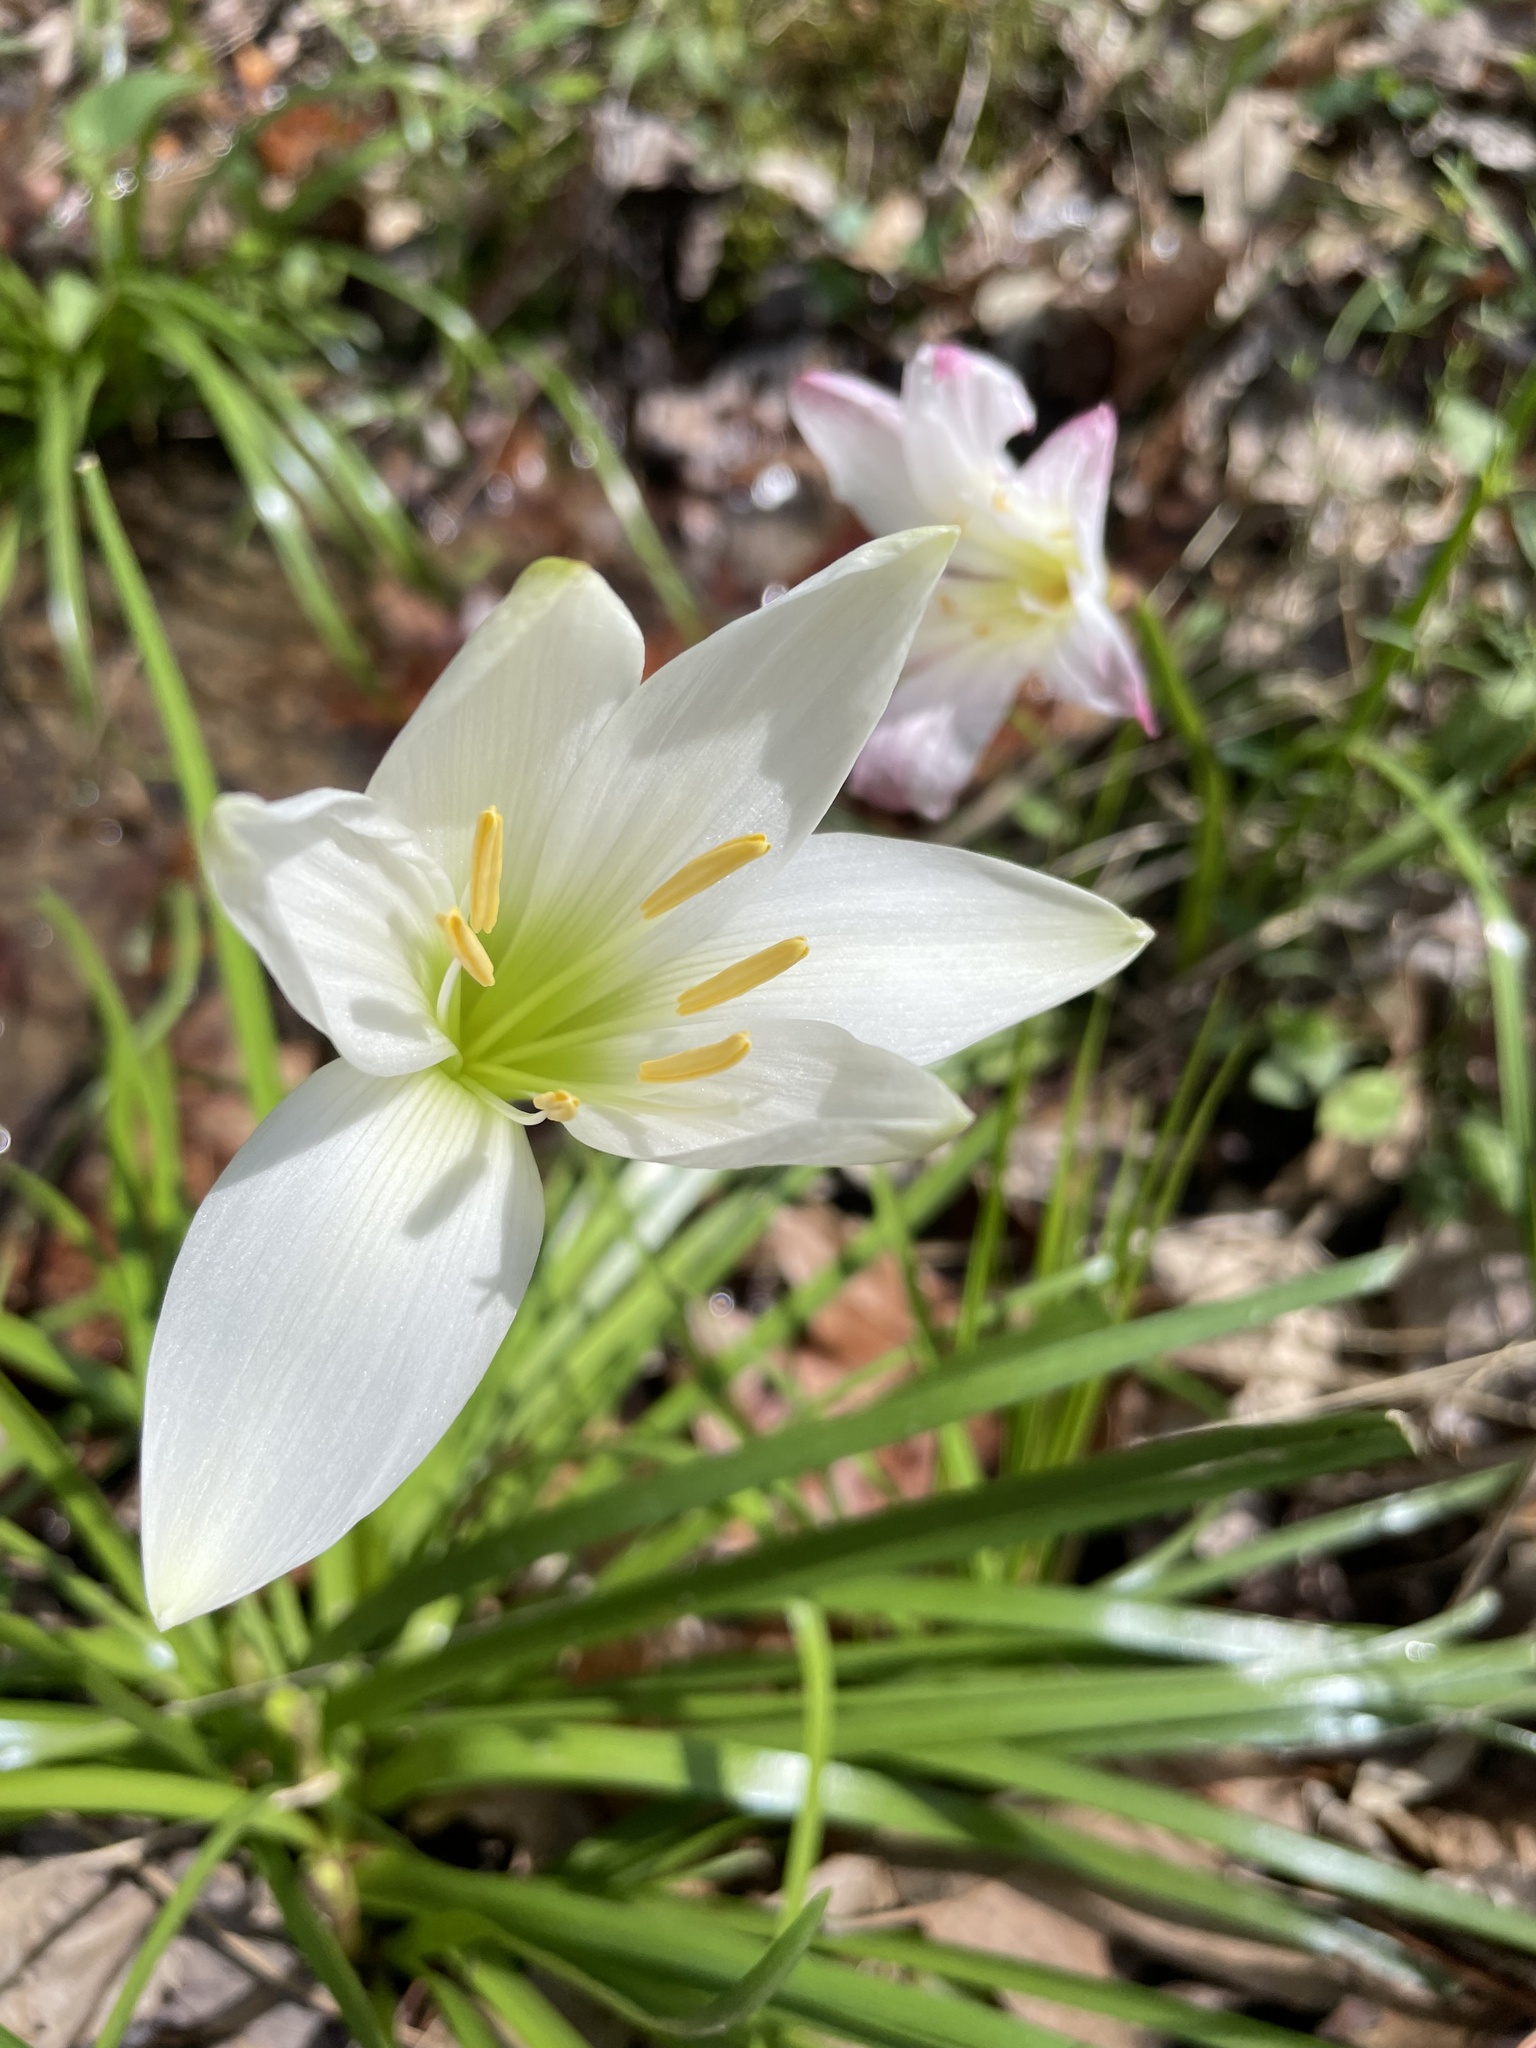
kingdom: Plantae
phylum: Tracheophyta
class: Liliopsida
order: Asparagales
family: Amaryllidaceae
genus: Zephyranthes
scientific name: Zephyranthes atamasco
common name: Atamasco lily
